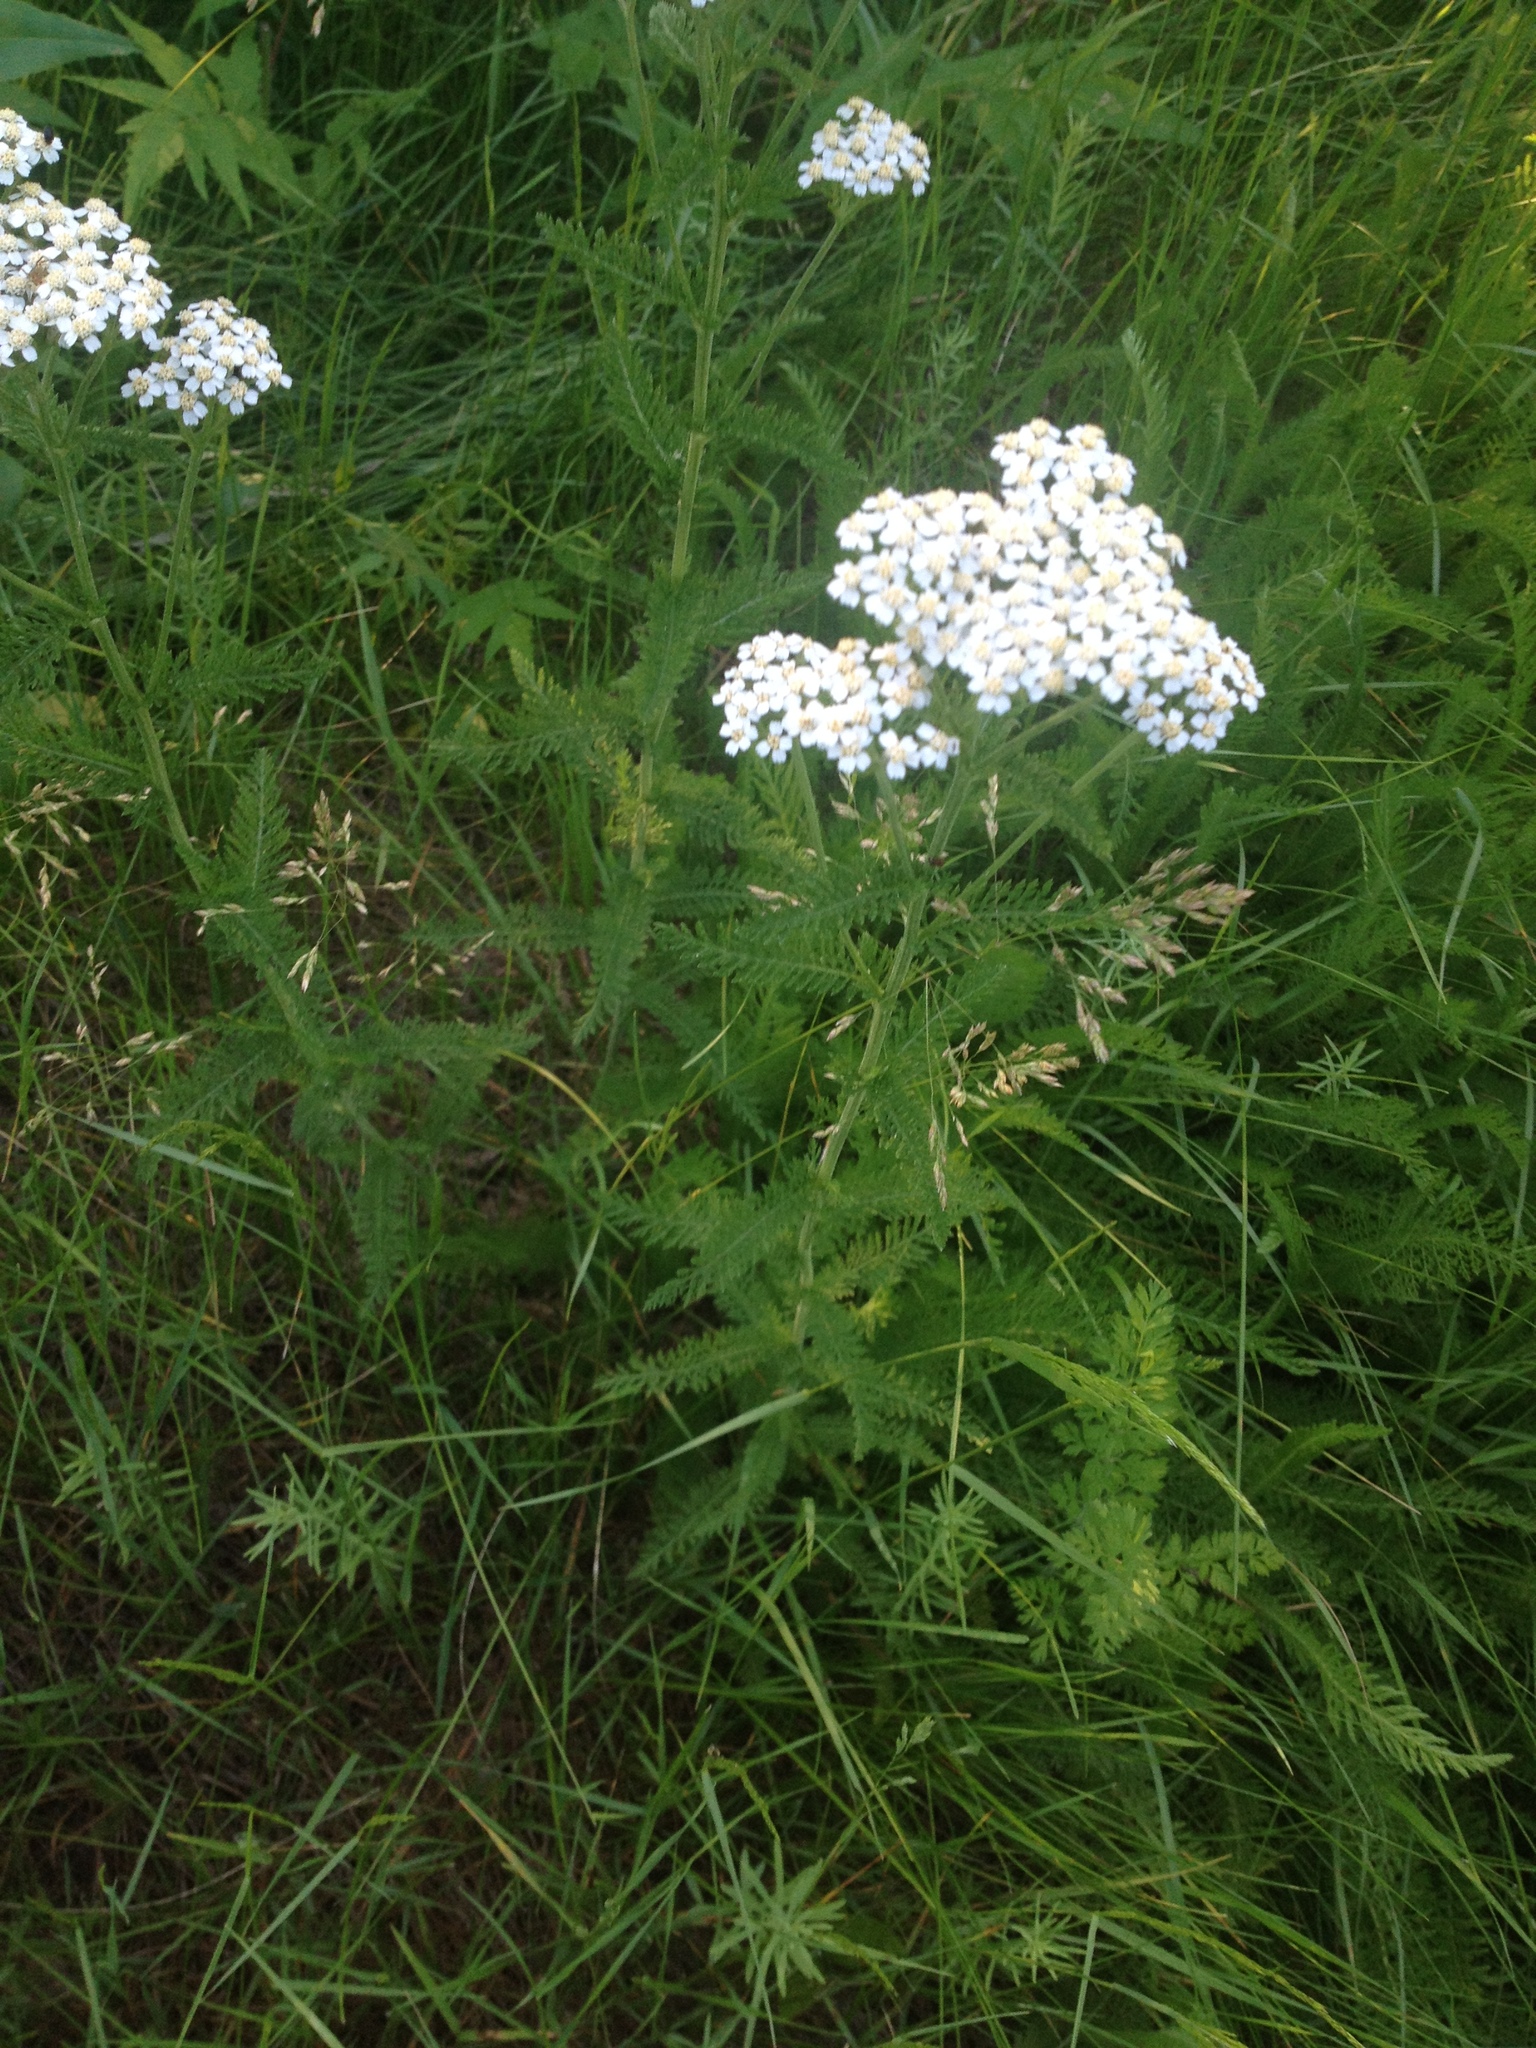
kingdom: Plantae
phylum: Tracheophyta
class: Magnoliopsida
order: Asterales
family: Asteraceae
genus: Achillea
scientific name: Achillea millefolium
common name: Yarrow
